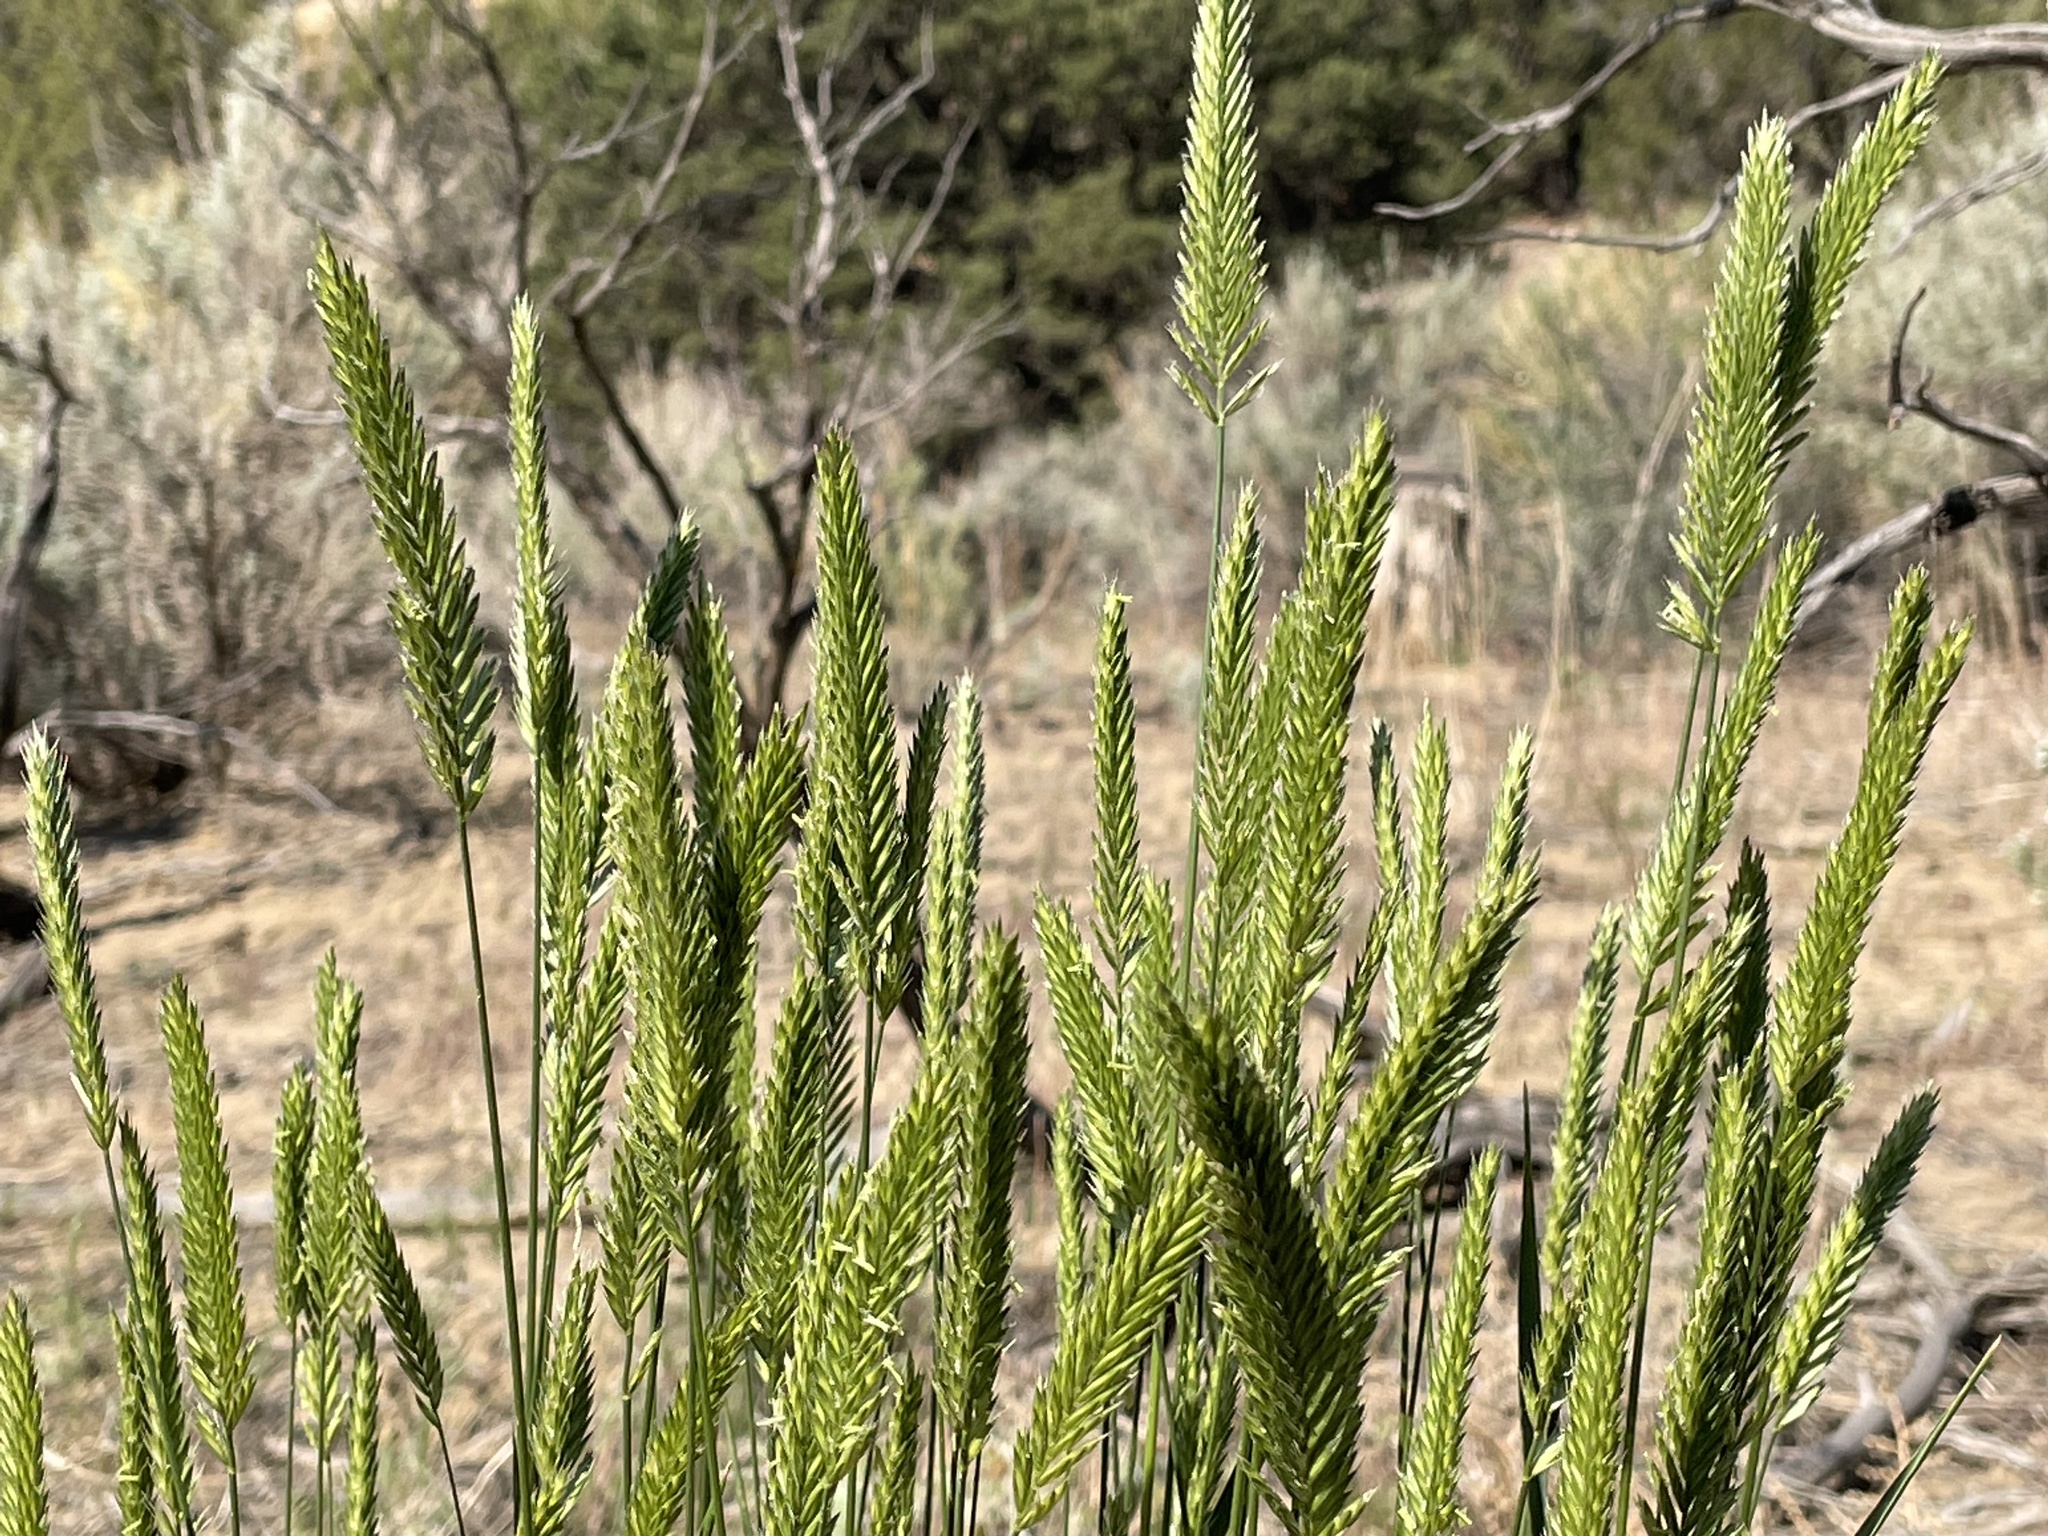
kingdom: Plantae
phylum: Tracheophyta
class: Liliopsida
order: Poales
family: Poaceae
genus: Agropyron
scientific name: Agropyron cristatum
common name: Crested wheatgrass
